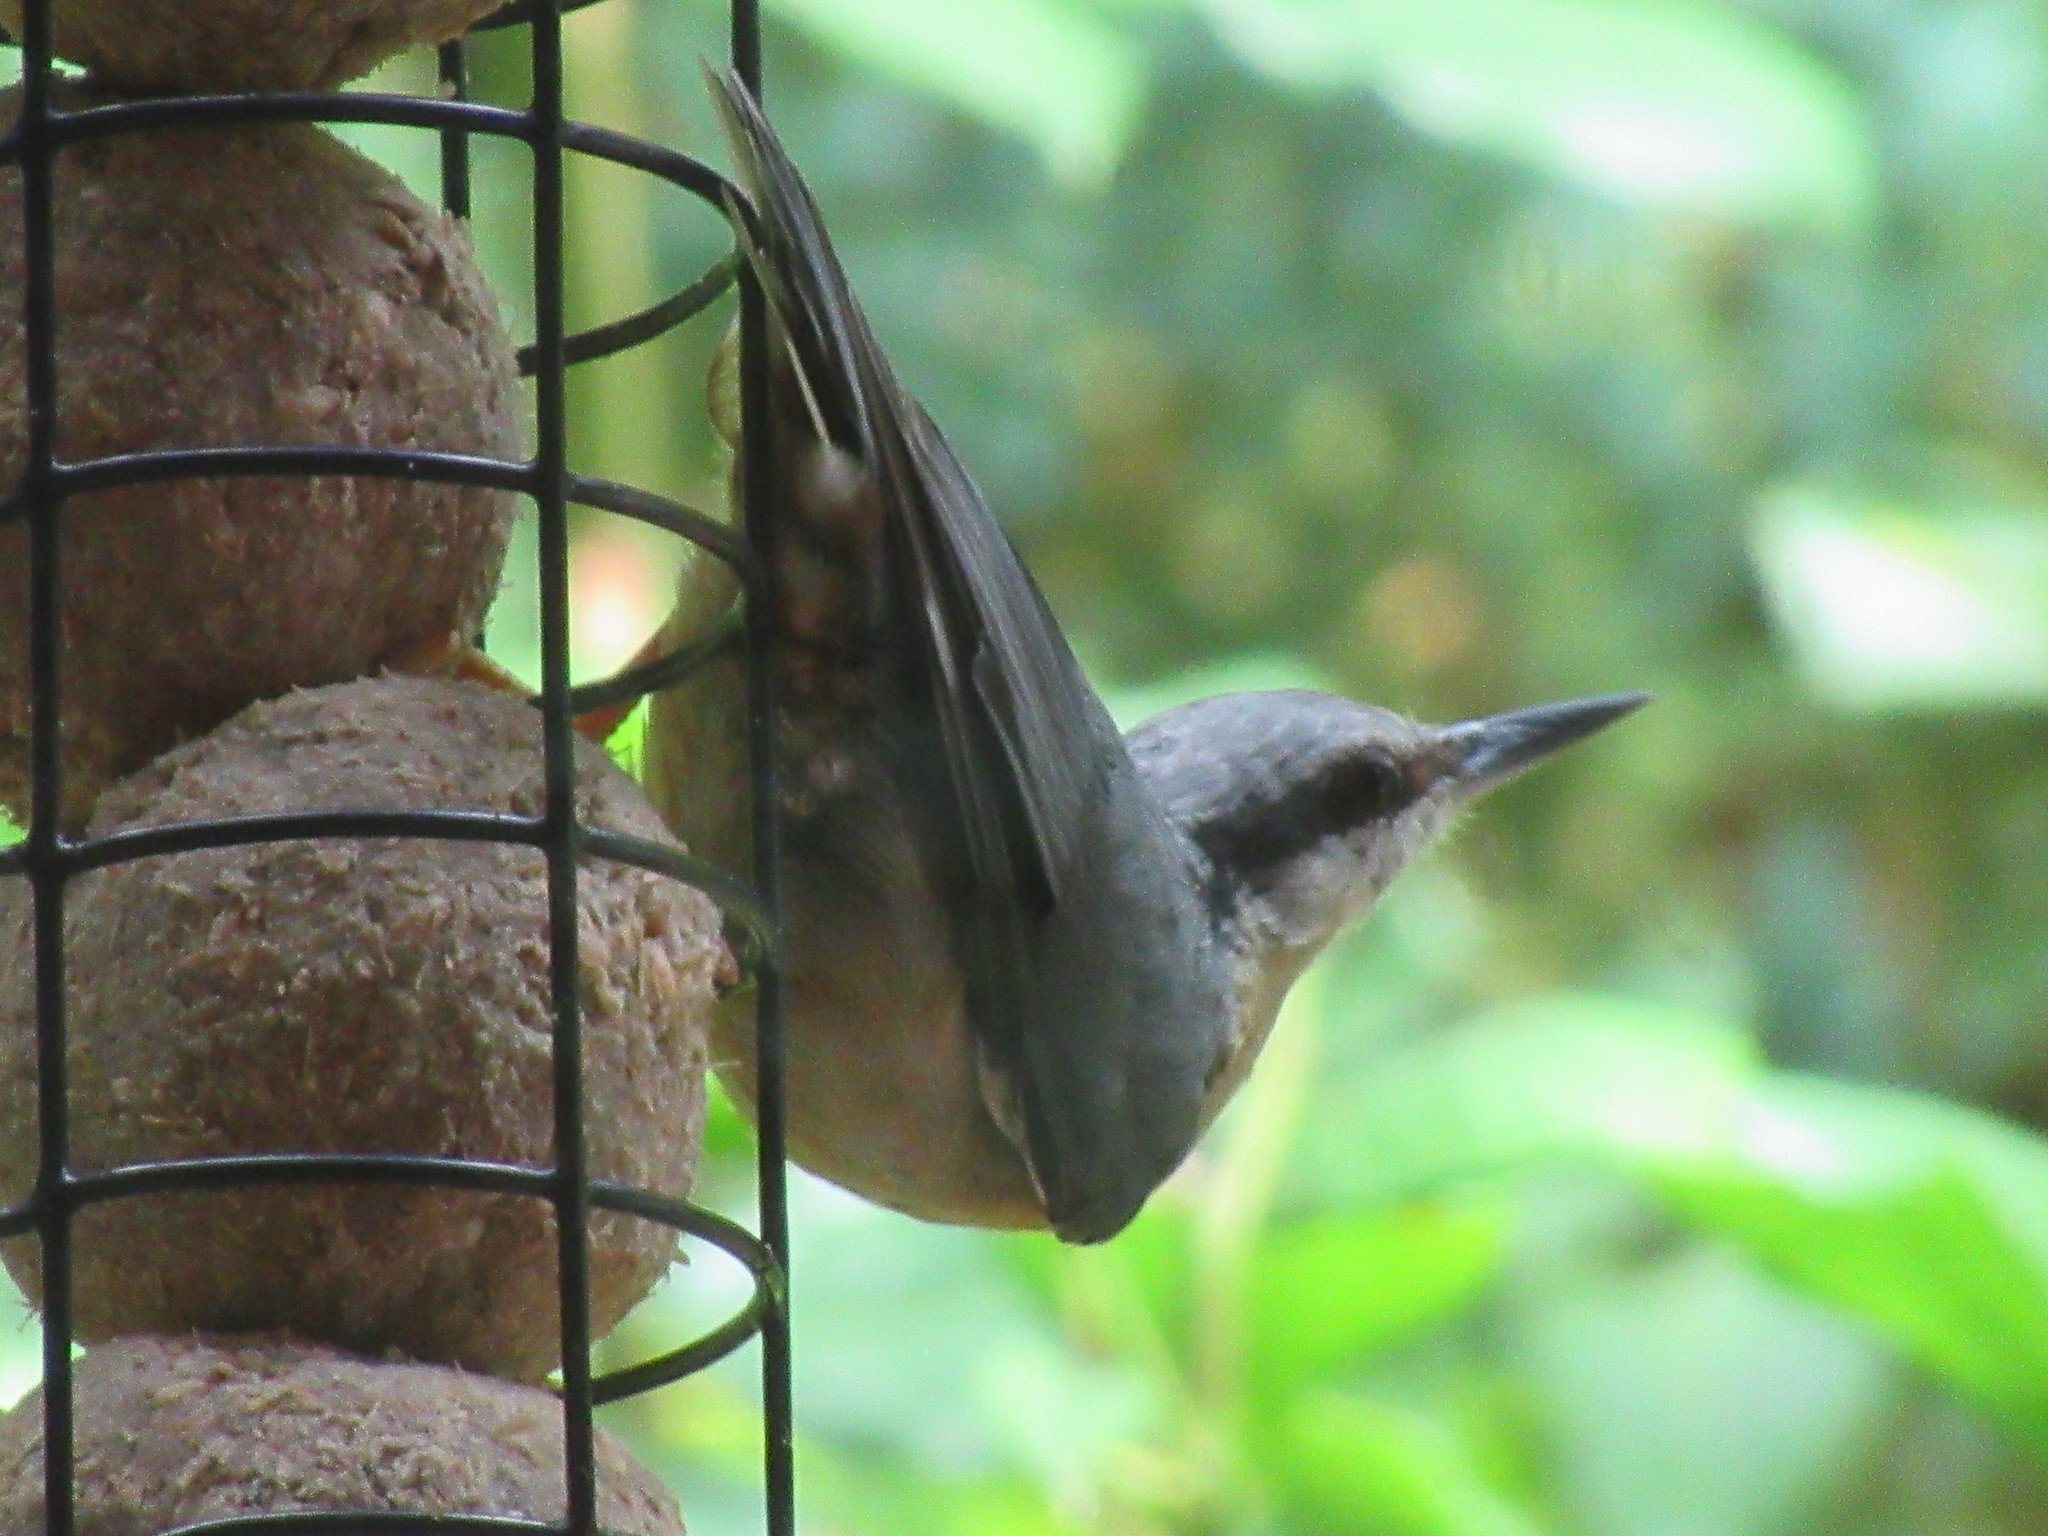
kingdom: Animalia
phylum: Chordata
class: Aves
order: Passeriformes
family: Sittidae
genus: Sitta
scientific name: Sitta europaea
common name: Eurasian nuthatch
